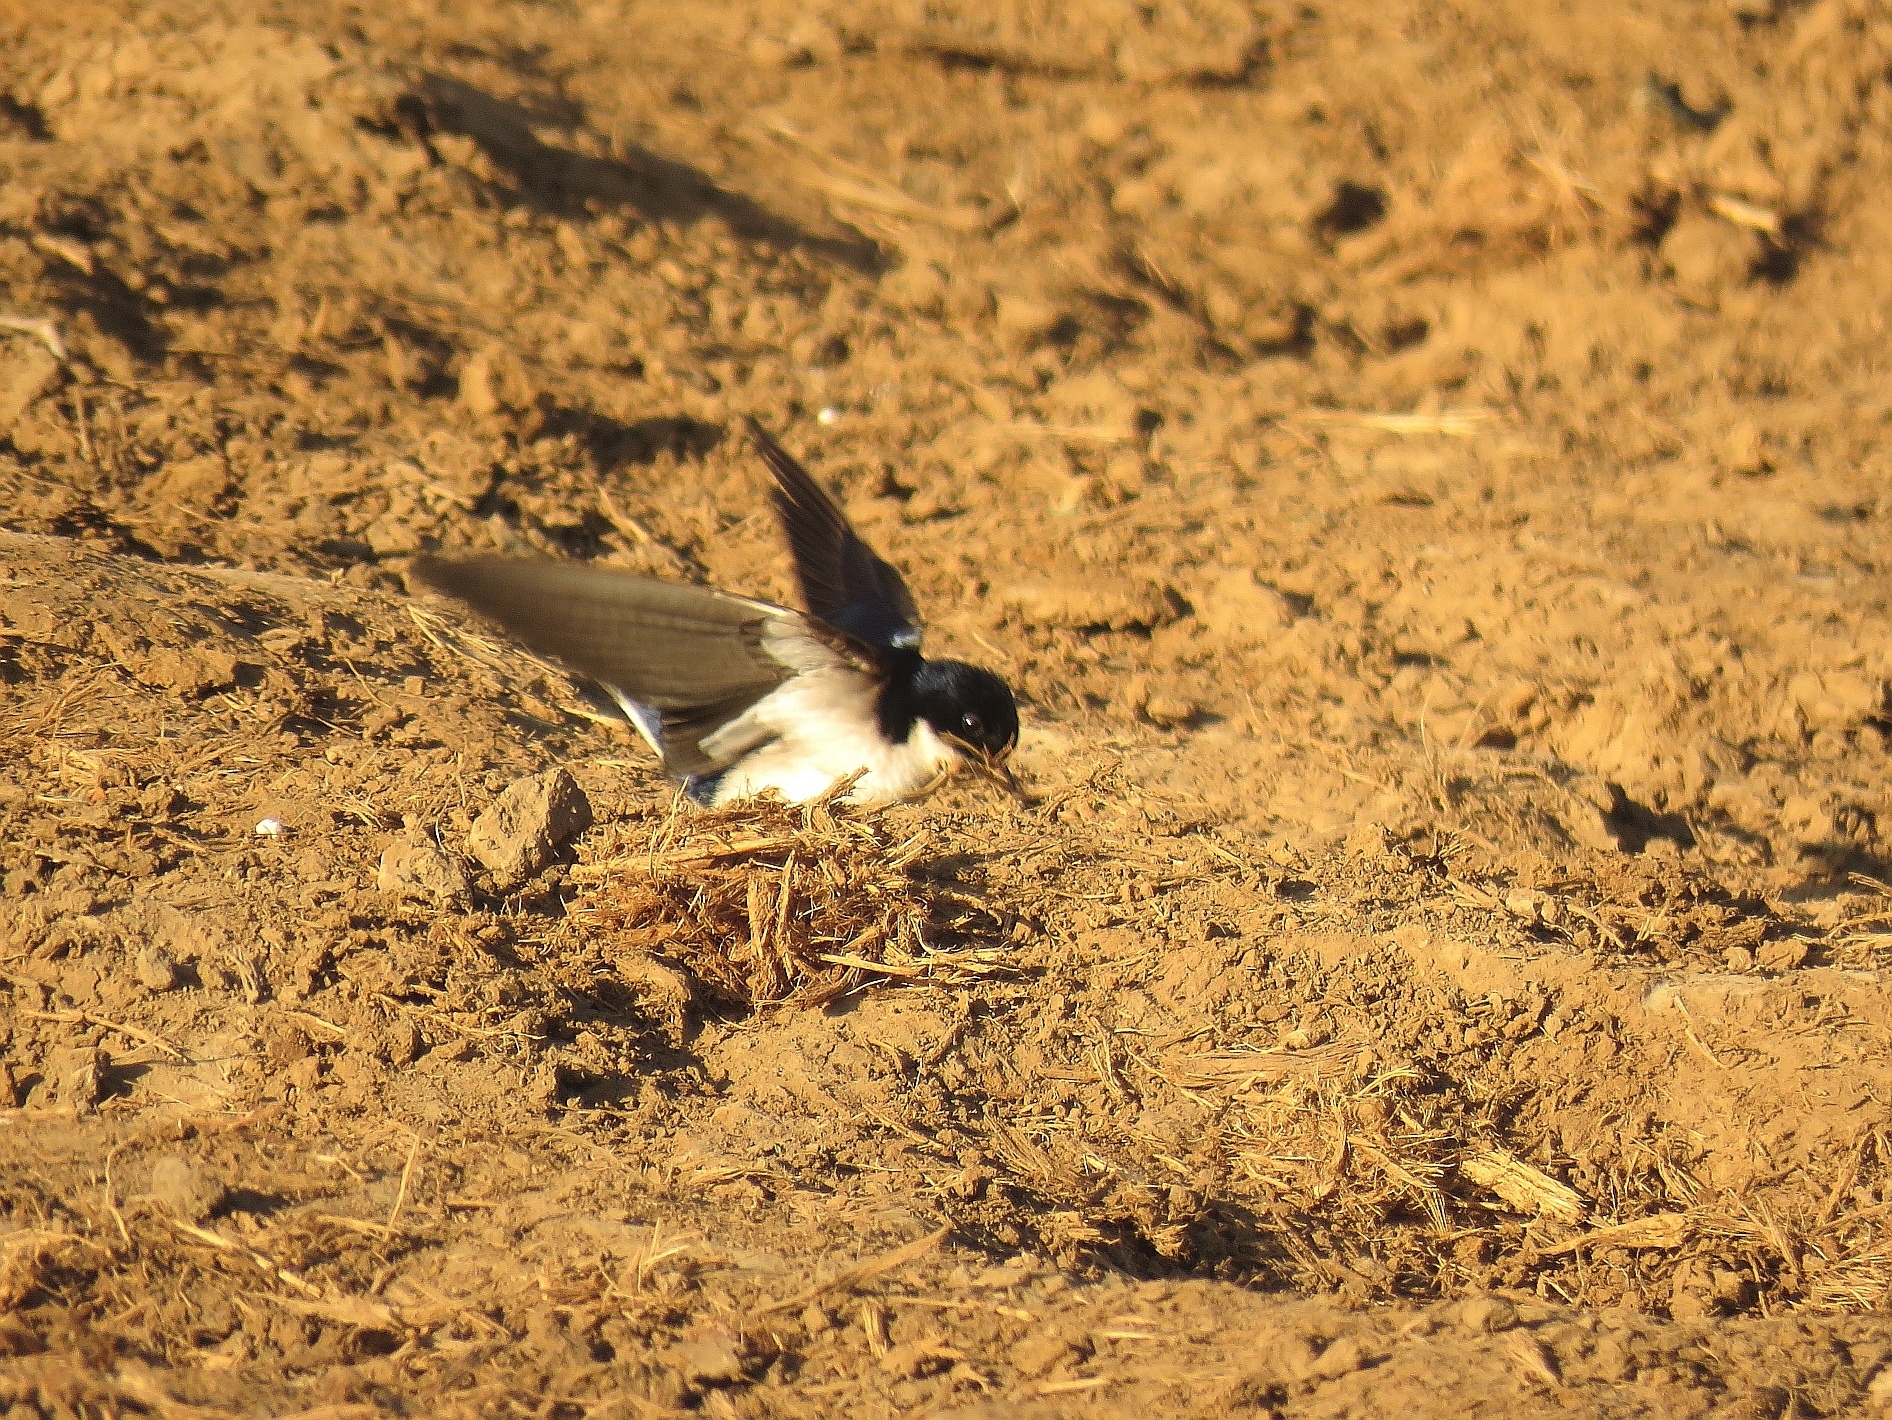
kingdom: Animalia
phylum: Chordata
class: Aves
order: Passeriformes
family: Hirundinidae
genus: Hirundo
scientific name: Hirundo dimidiata
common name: Pearl-breasted swallow
